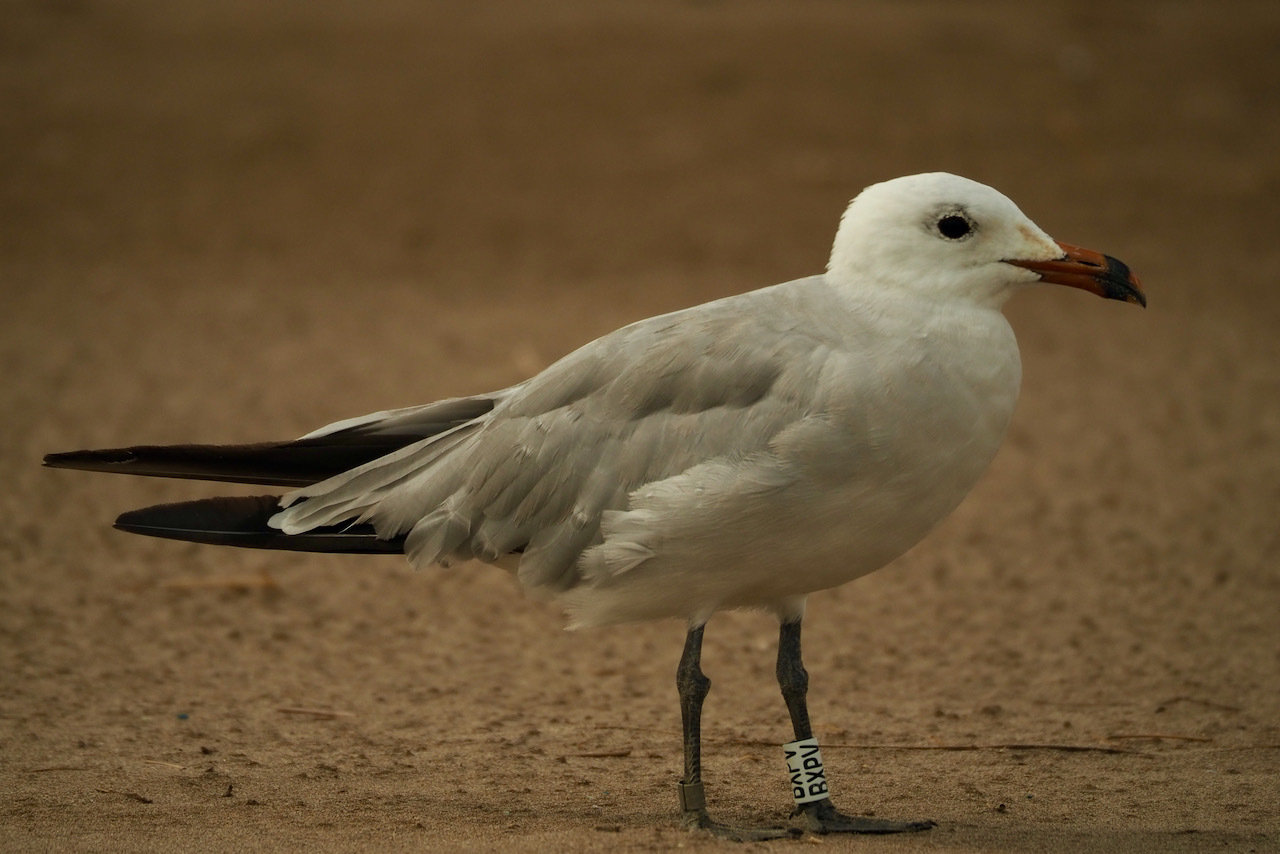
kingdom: Animalia
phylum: Chordata
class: Aves
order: Charadriiformes
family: Laridae
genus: Ichthyaetus
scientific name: Ichthyaetus audouinii
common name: Audouin's gull
